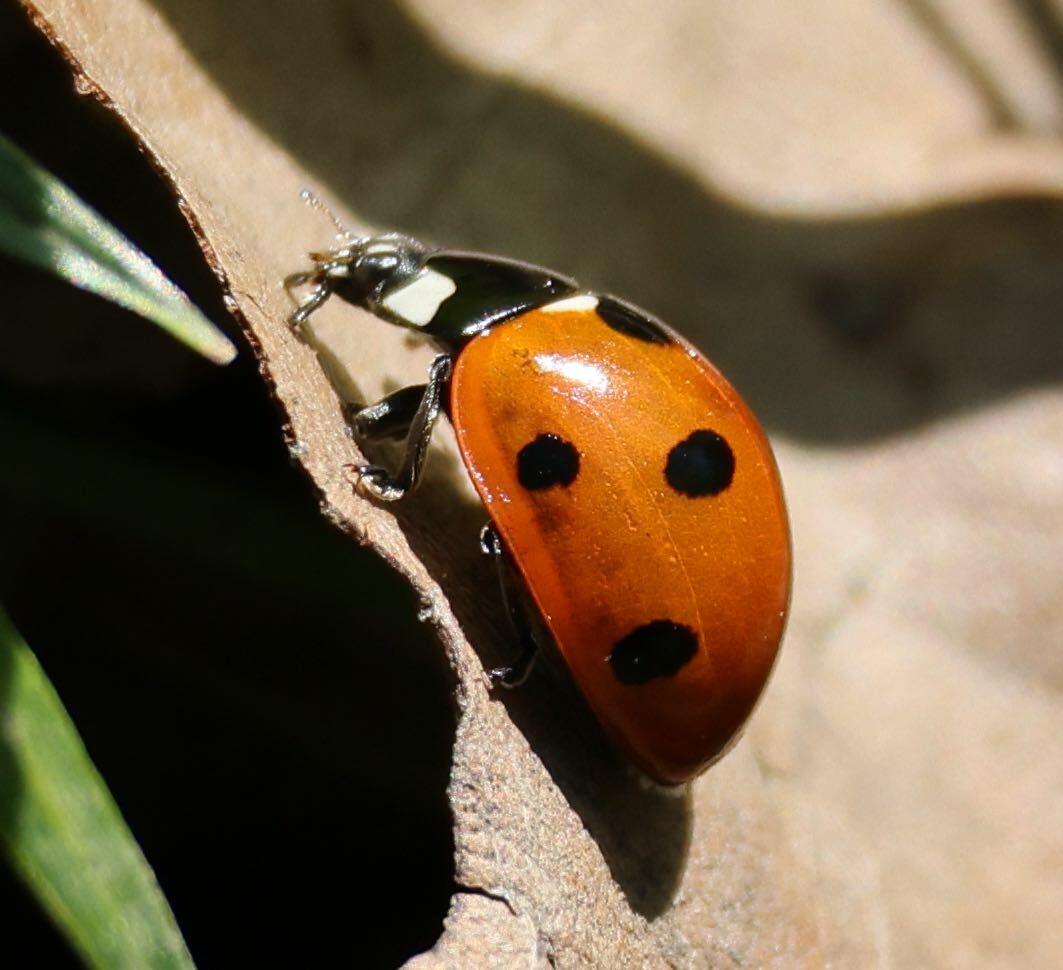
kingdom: Animalia
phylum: Arthropoda
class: Insecta
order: Coleoptera
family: Coccinellidae
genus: Coccinella
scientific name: Coccinella septempunctata
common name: Sevenspotted lady beetle
